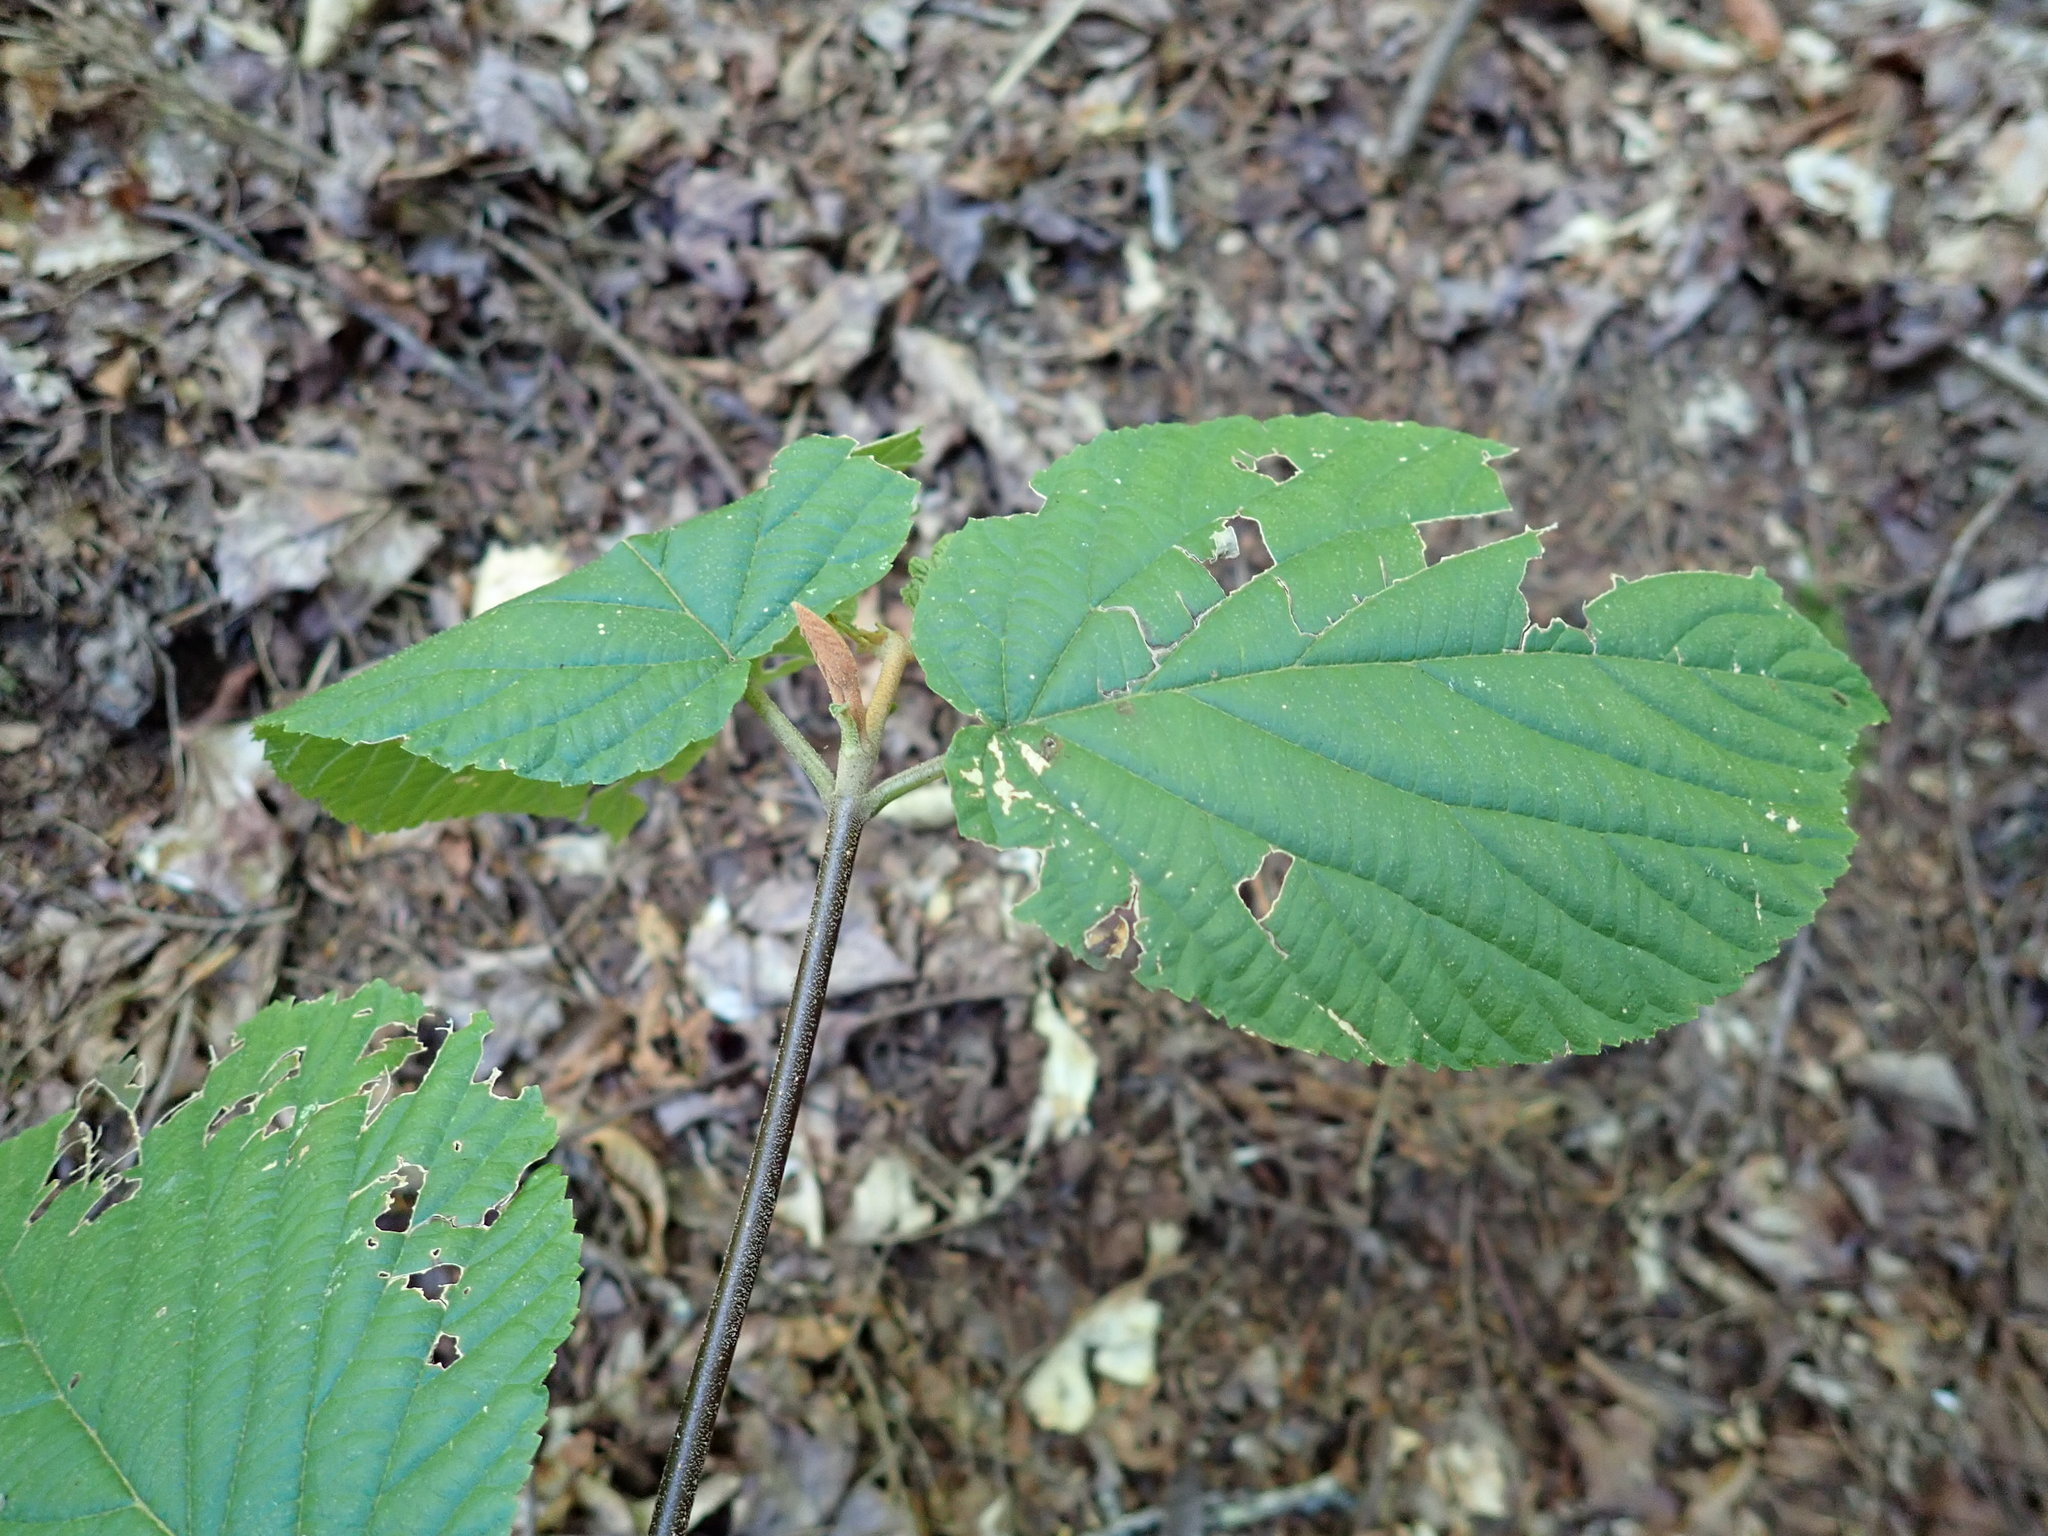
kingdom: Plantae
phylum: Tracheophyta
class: Magnoliopsida
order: Dipsacales
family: Viburnaceae
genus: Viburnum
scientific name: Viburnum lantanoides
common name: Hobblebush
